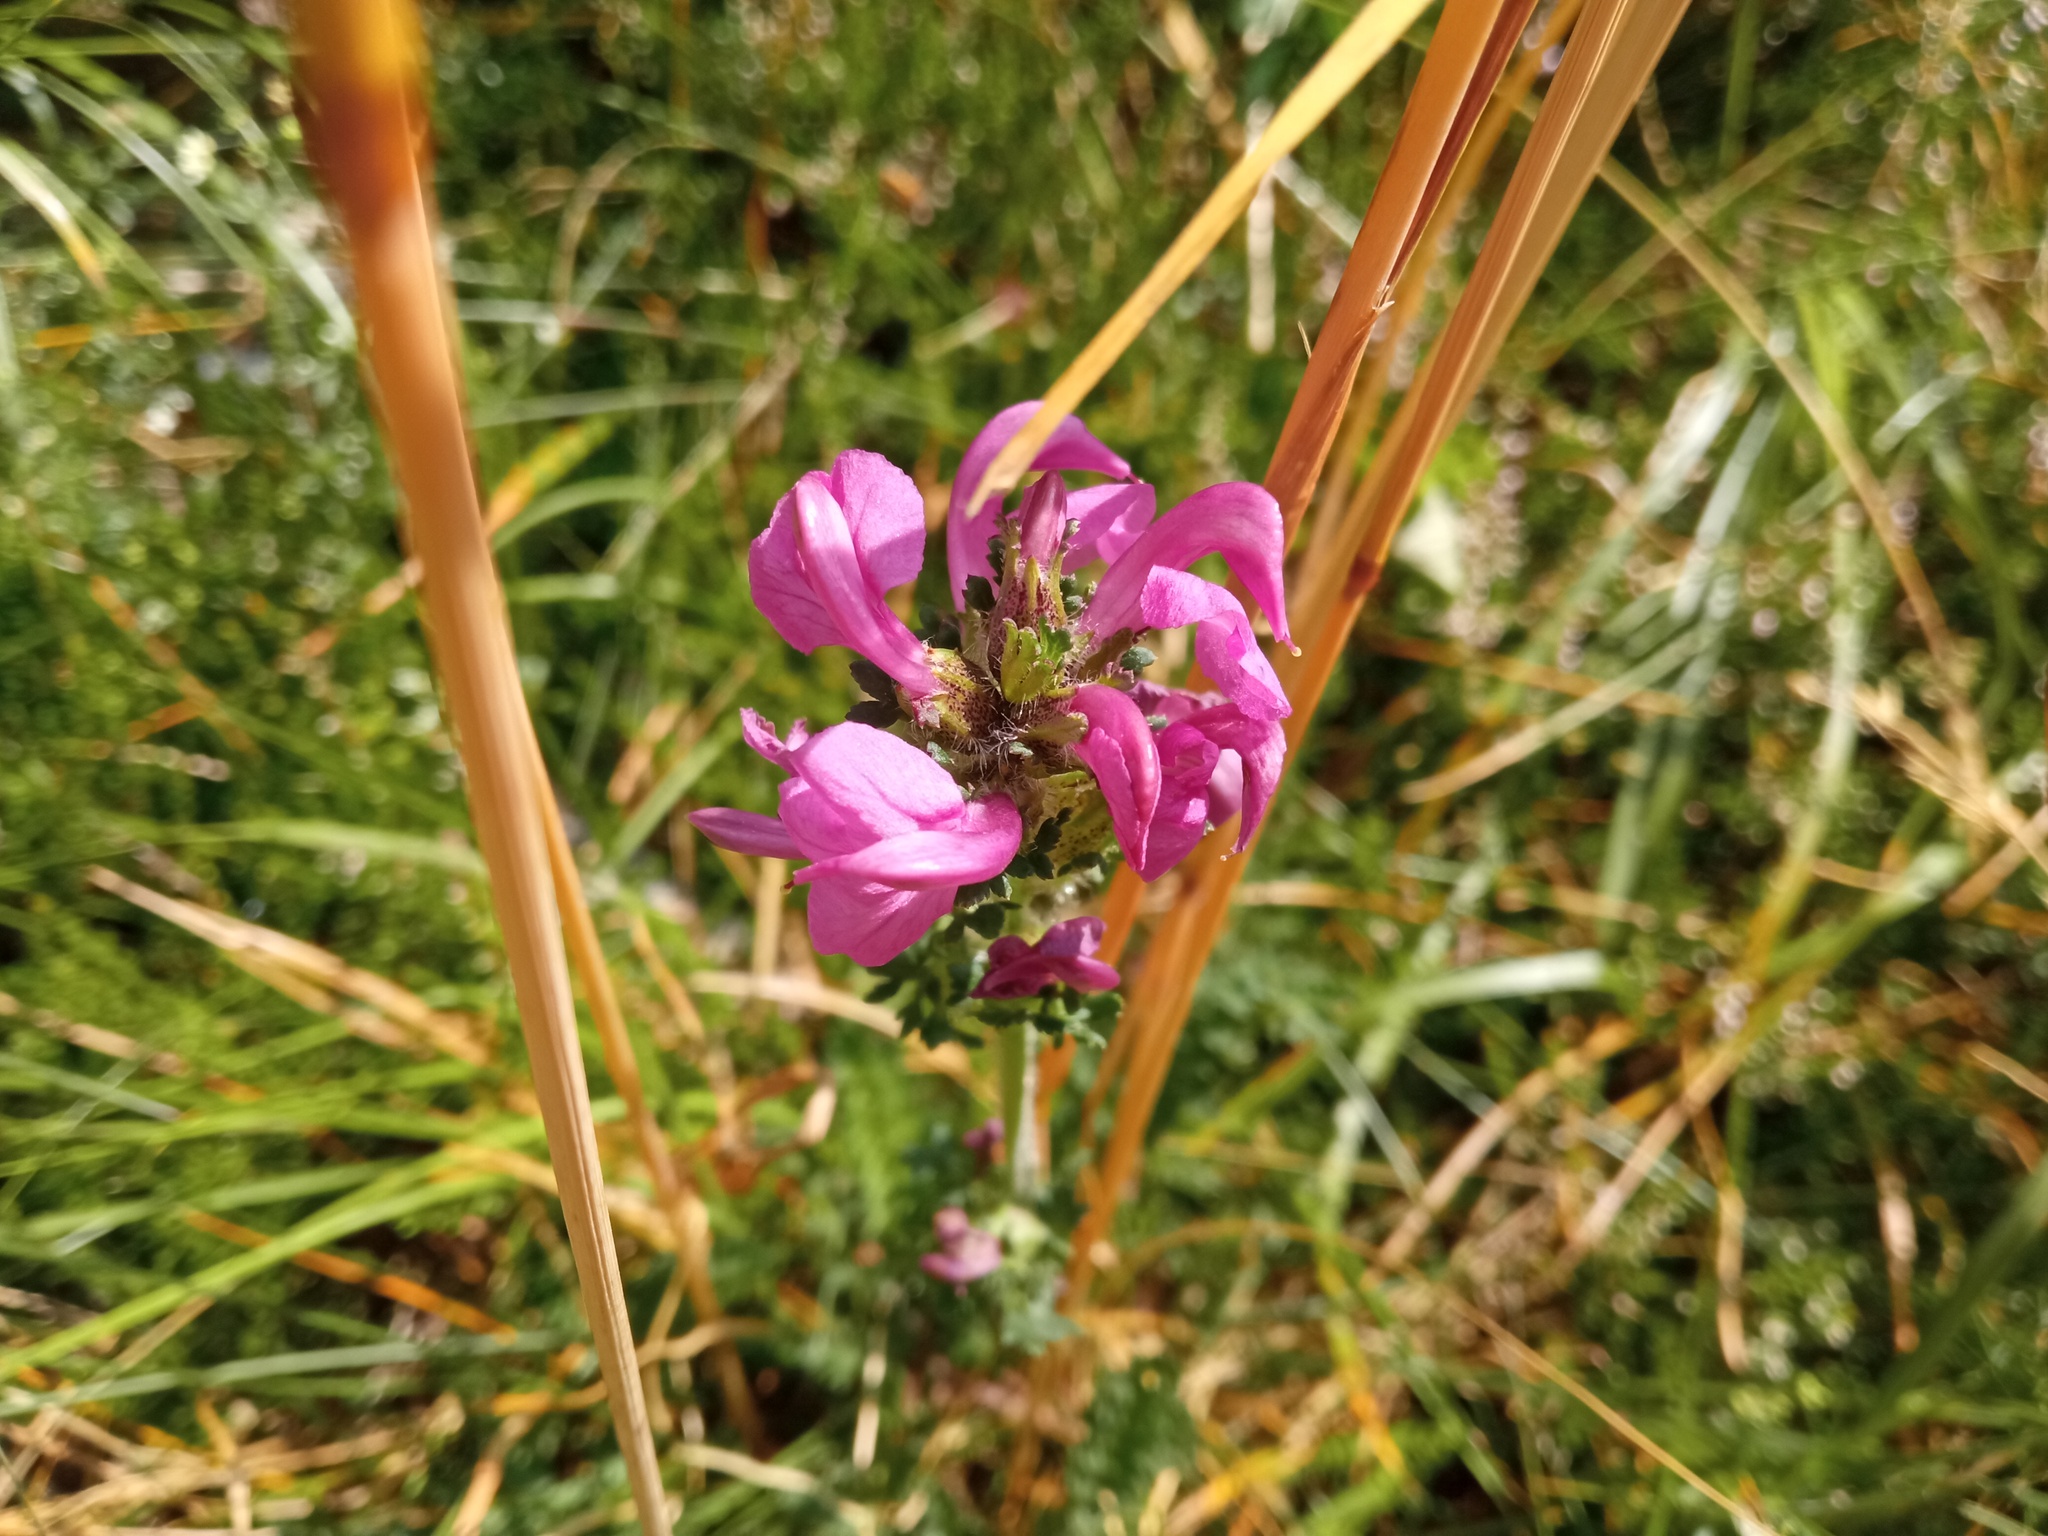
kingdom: Plantae
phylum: Tracheophyta
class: Magnoliopsida
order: Lamiales
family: Orobanchaceae
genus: Pedicularis
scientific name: Pedicularis pyrenaica
